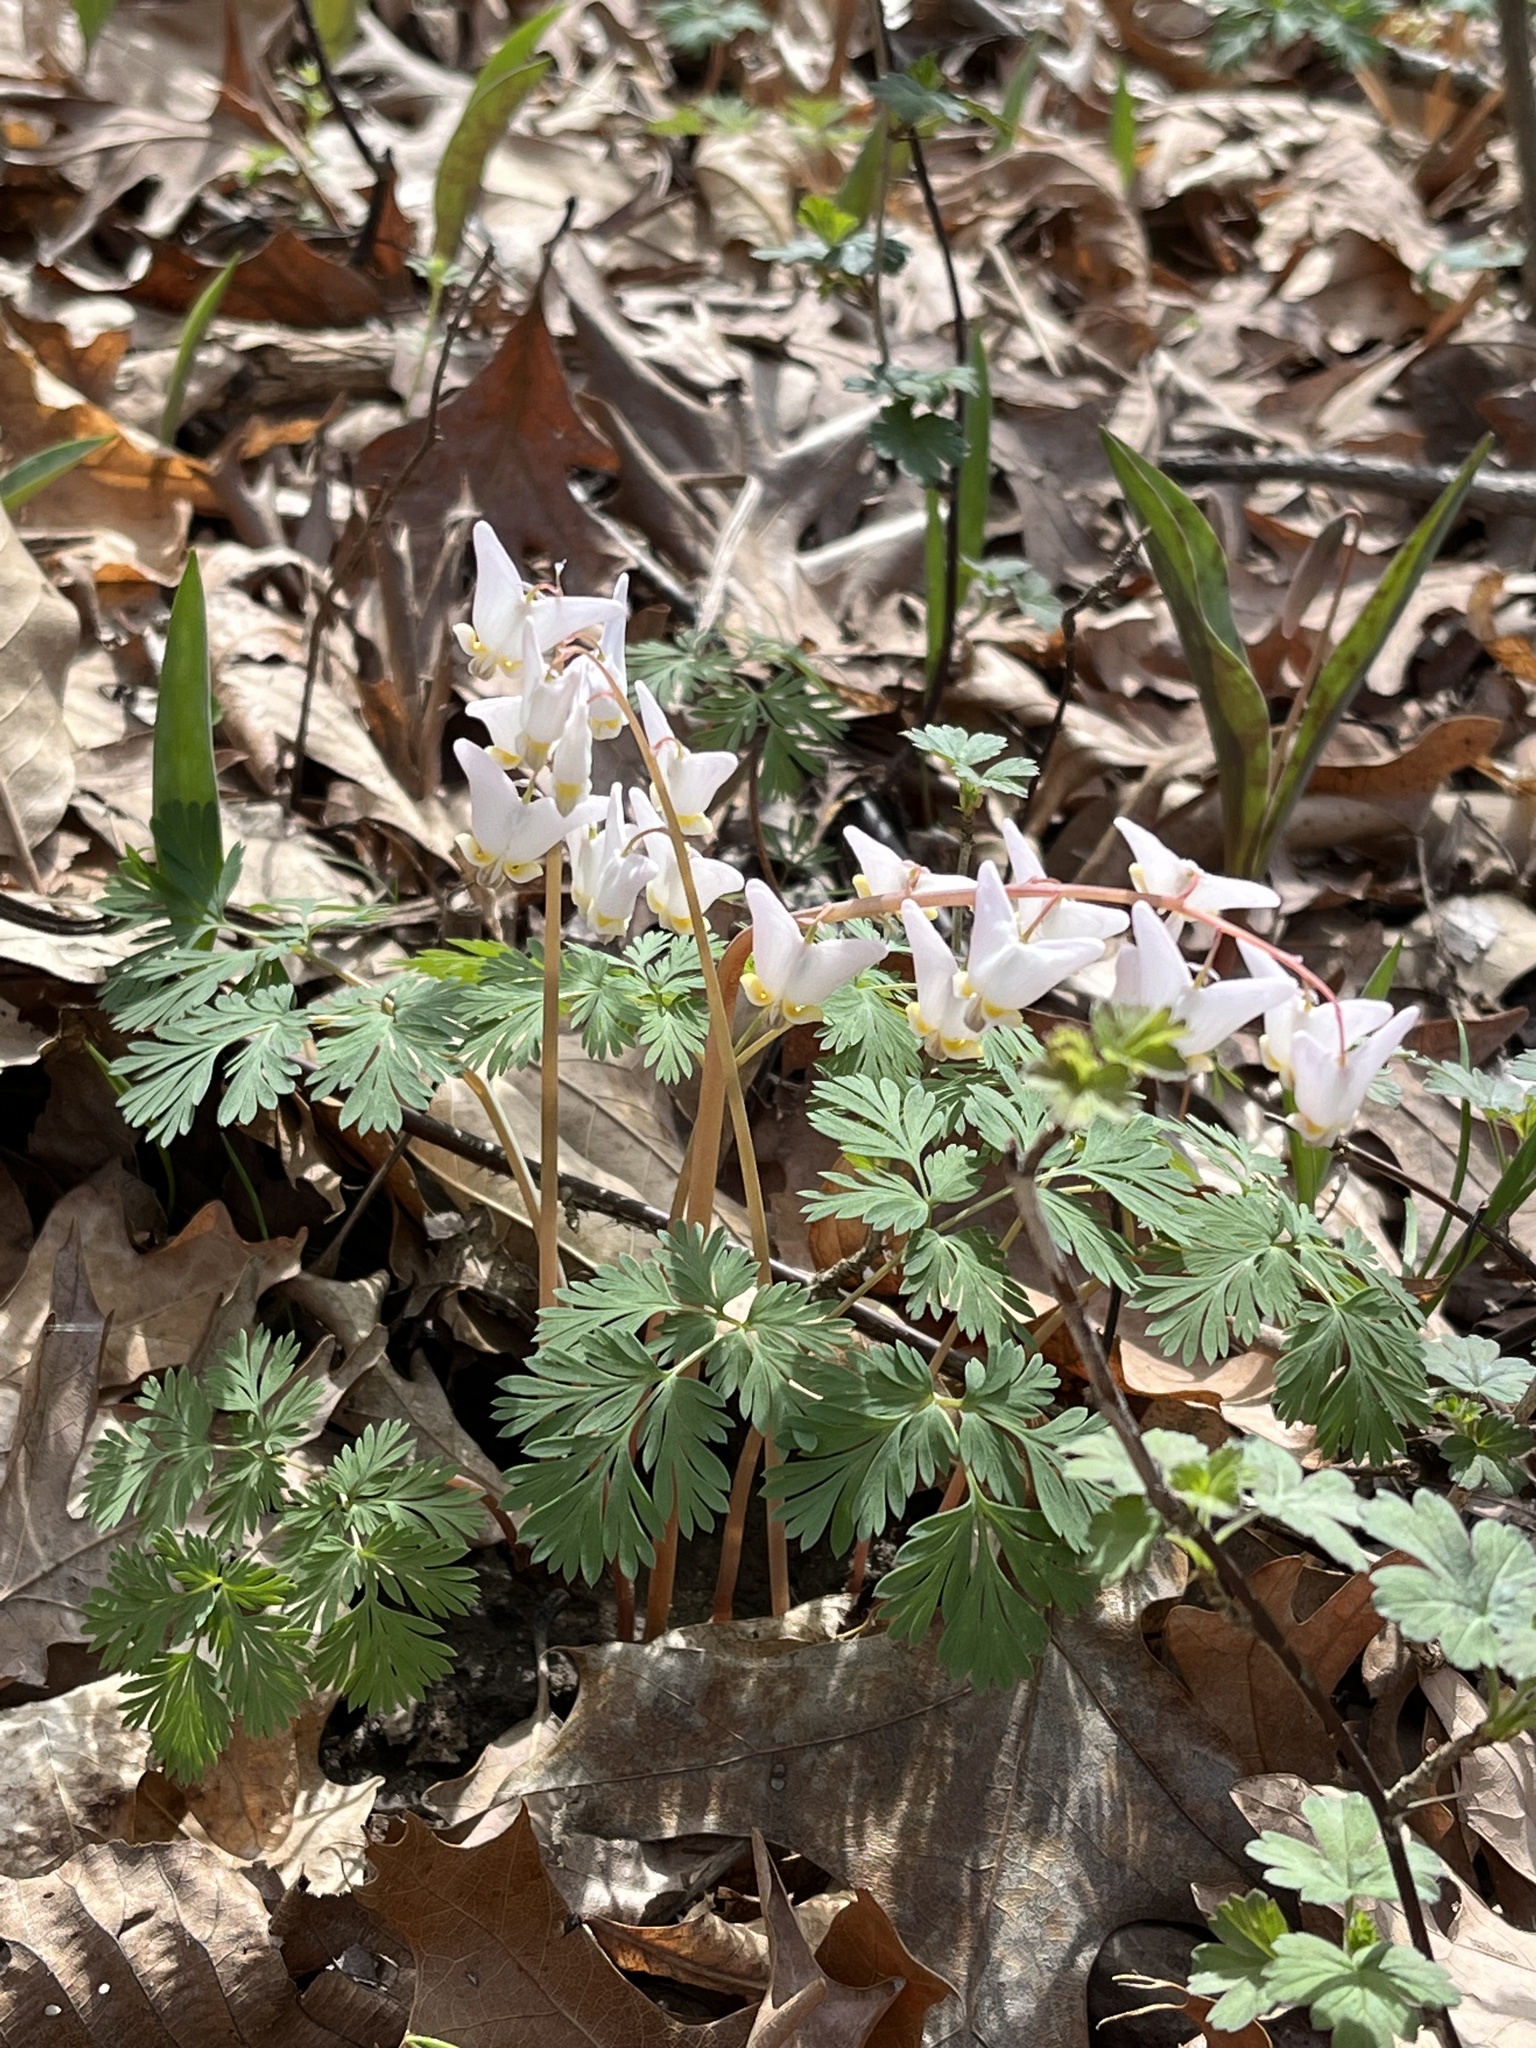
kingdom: Plantae
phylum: Tracheophyta
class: Magnoliopsida
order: Ranunculales
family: Papaveraceae
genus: Dicentra
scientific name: Dicentra cucullaria
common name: Dutchman's breeches
